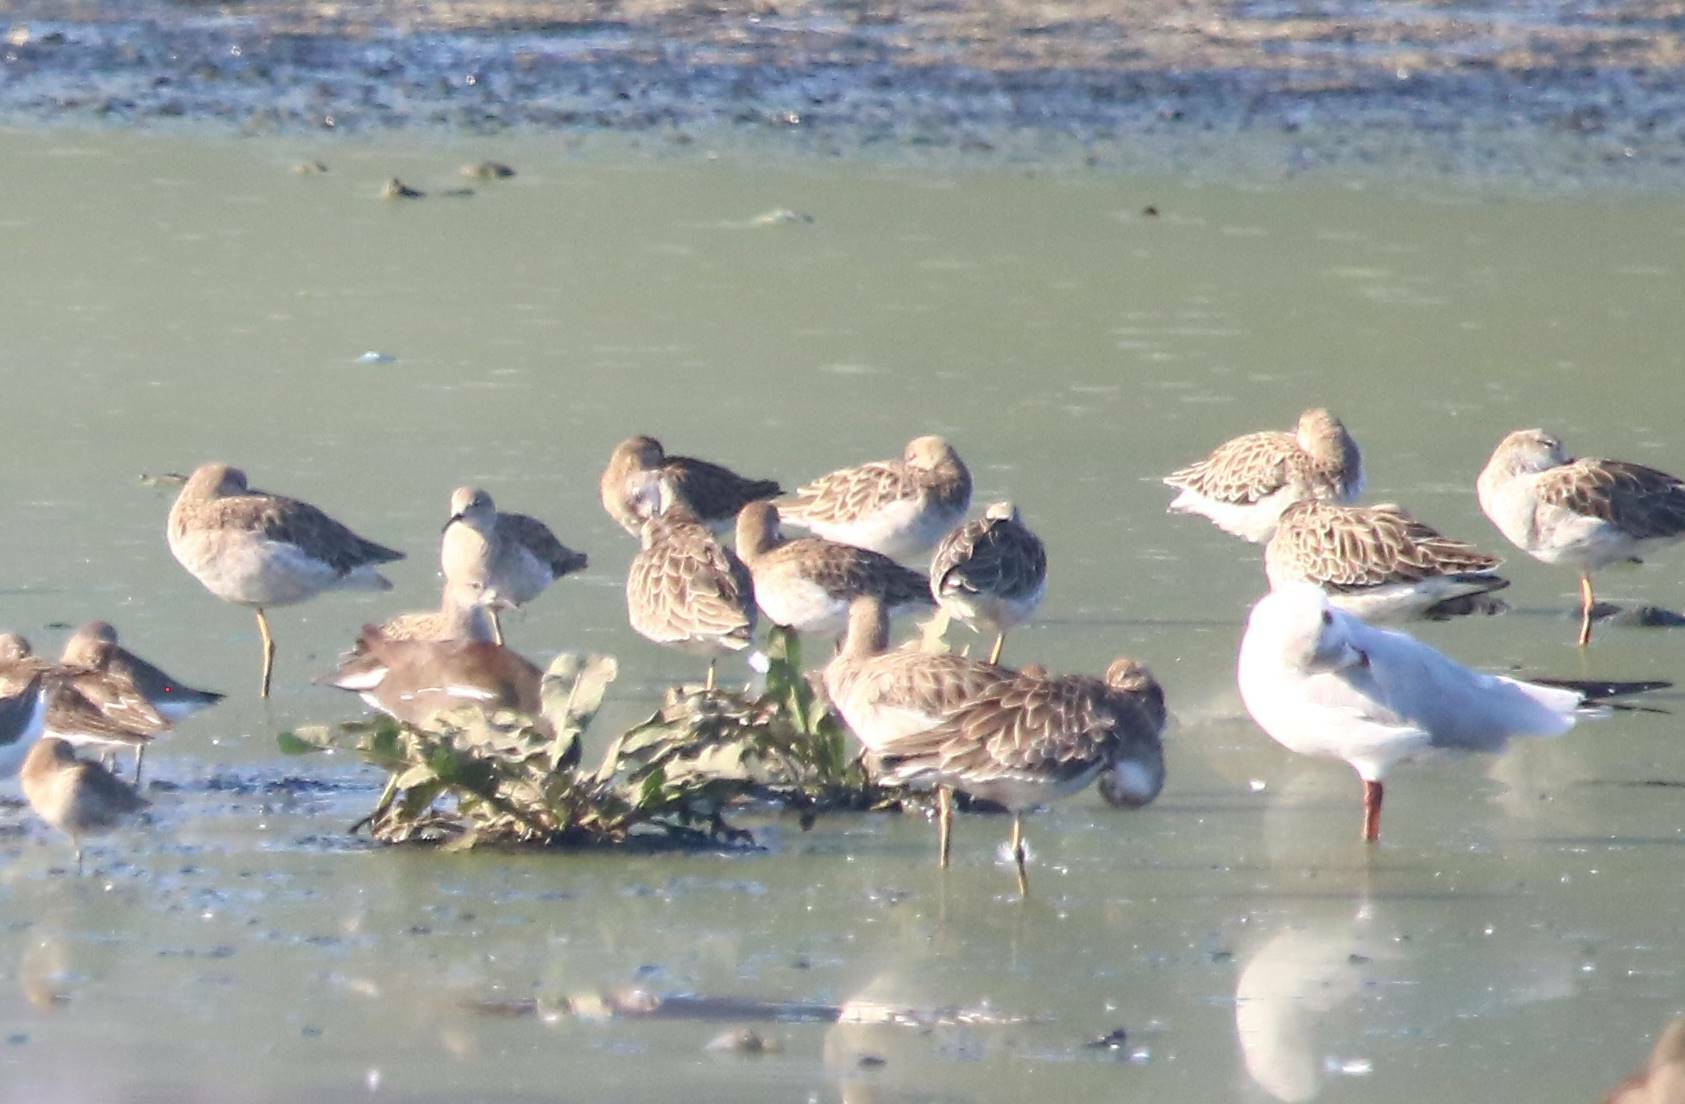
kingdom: Animalia
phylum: Chordata
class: Aves
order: Charadriiformes
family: Scolopacidae
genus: Calidris
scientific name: Calidris pugnax
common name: Ruff
